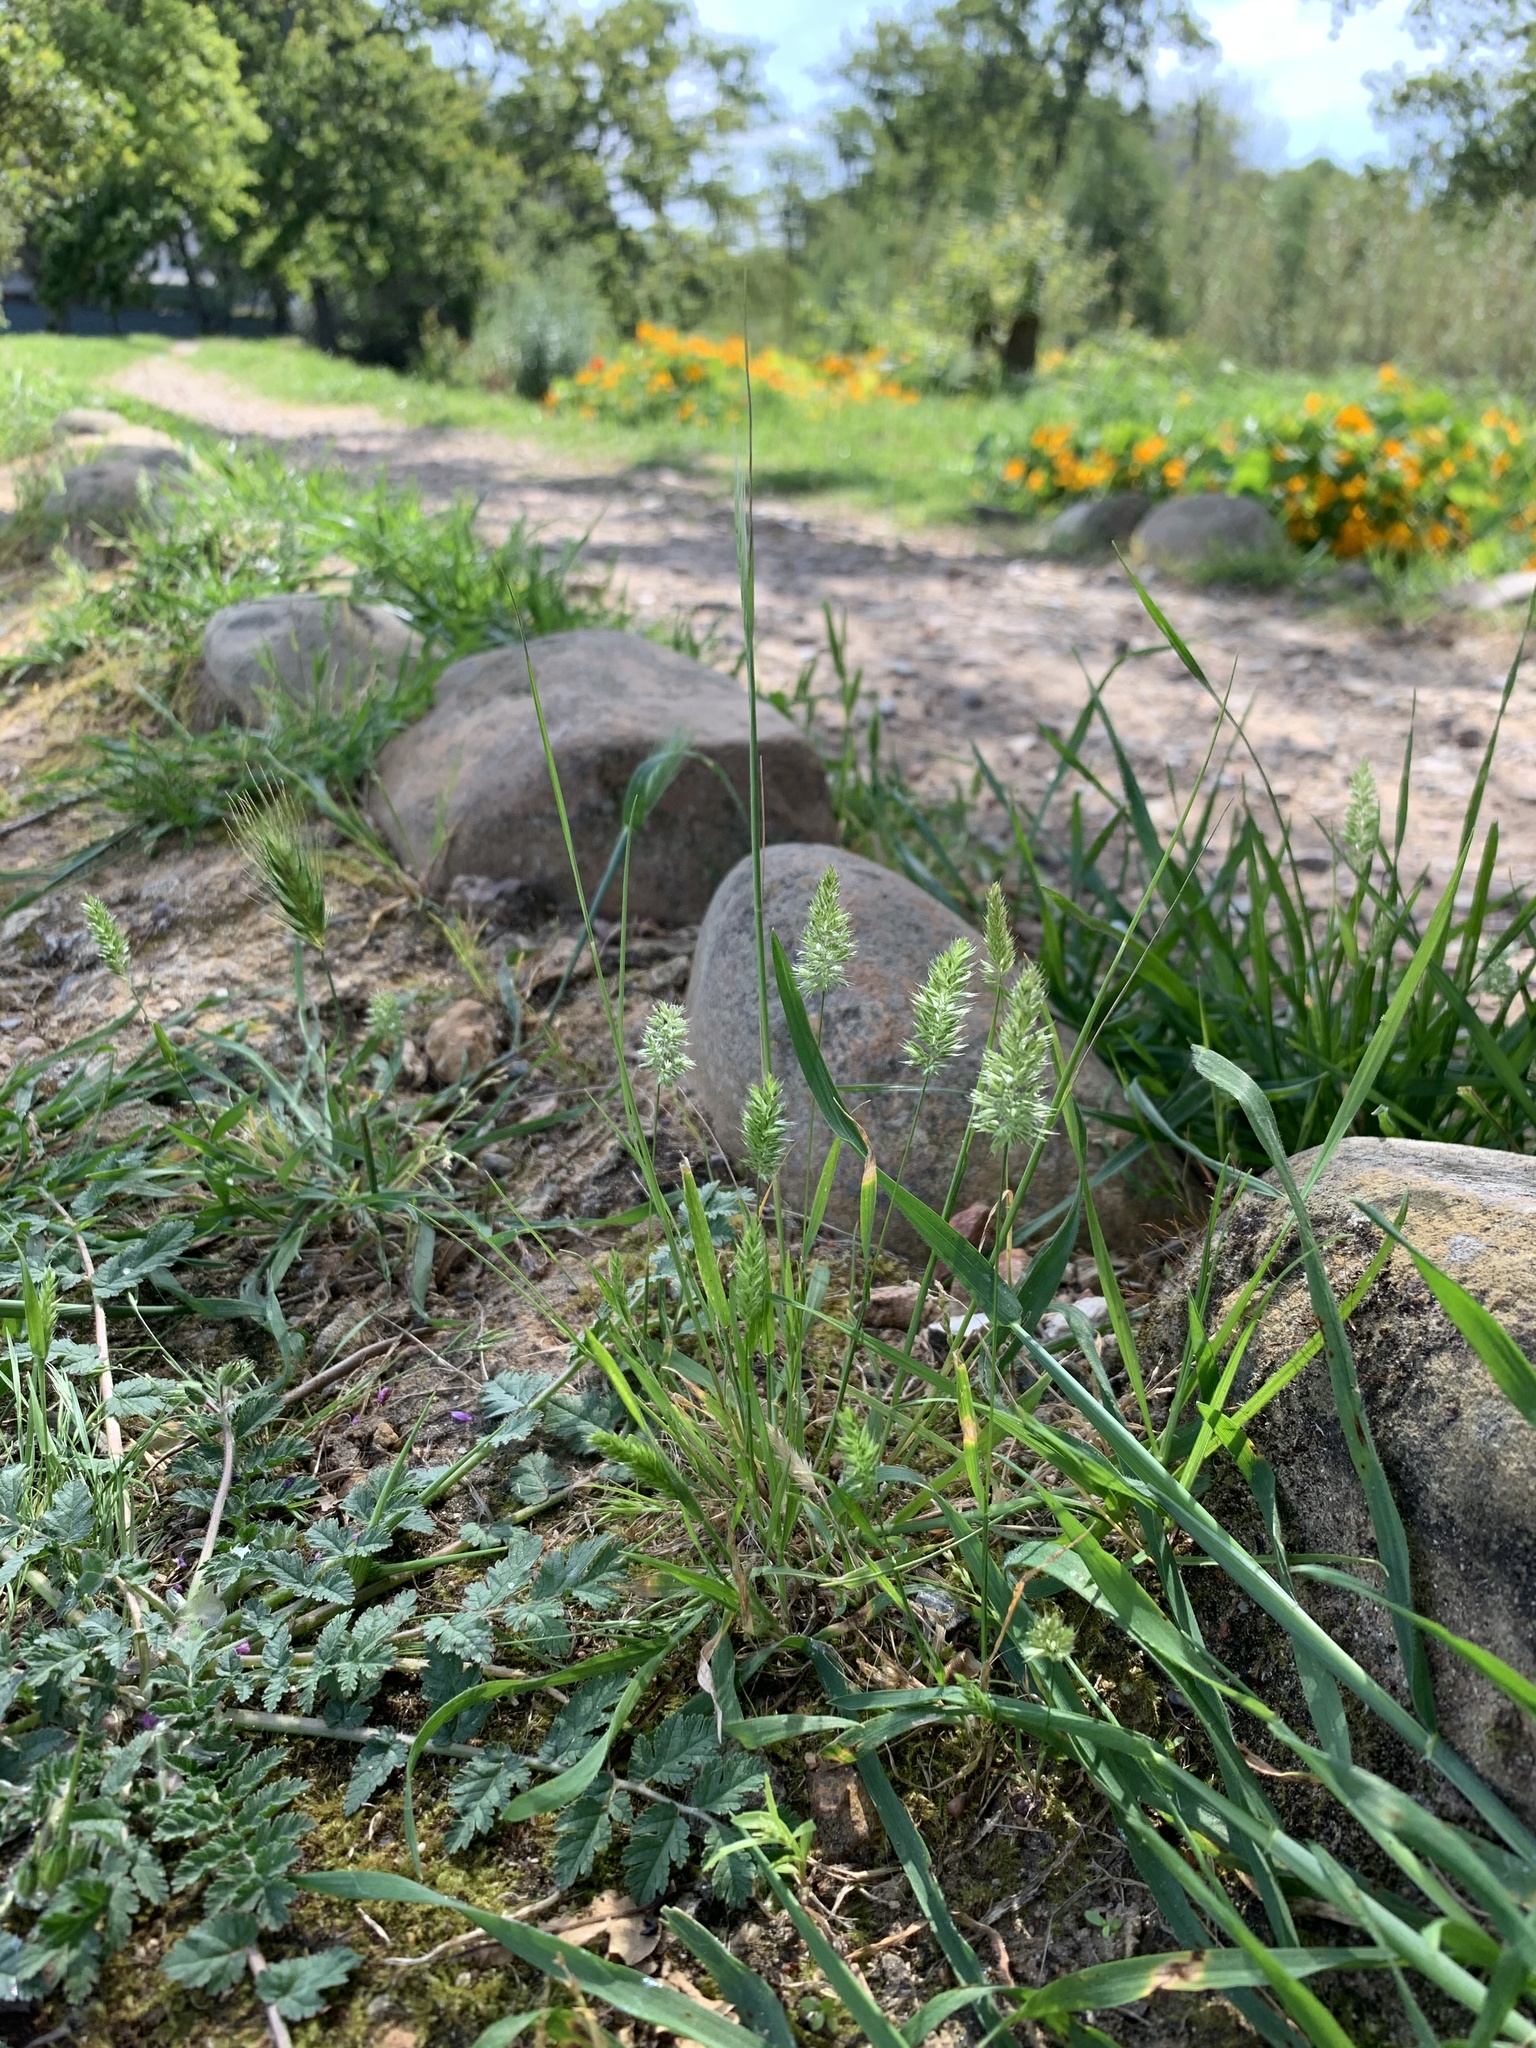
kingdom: Plantae
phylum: Tracheophyta
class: Liliopsida
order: Poales
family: Poaceae
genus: Rostraria
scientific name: Rostraria cristata
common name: Mediterranean hair-grass
